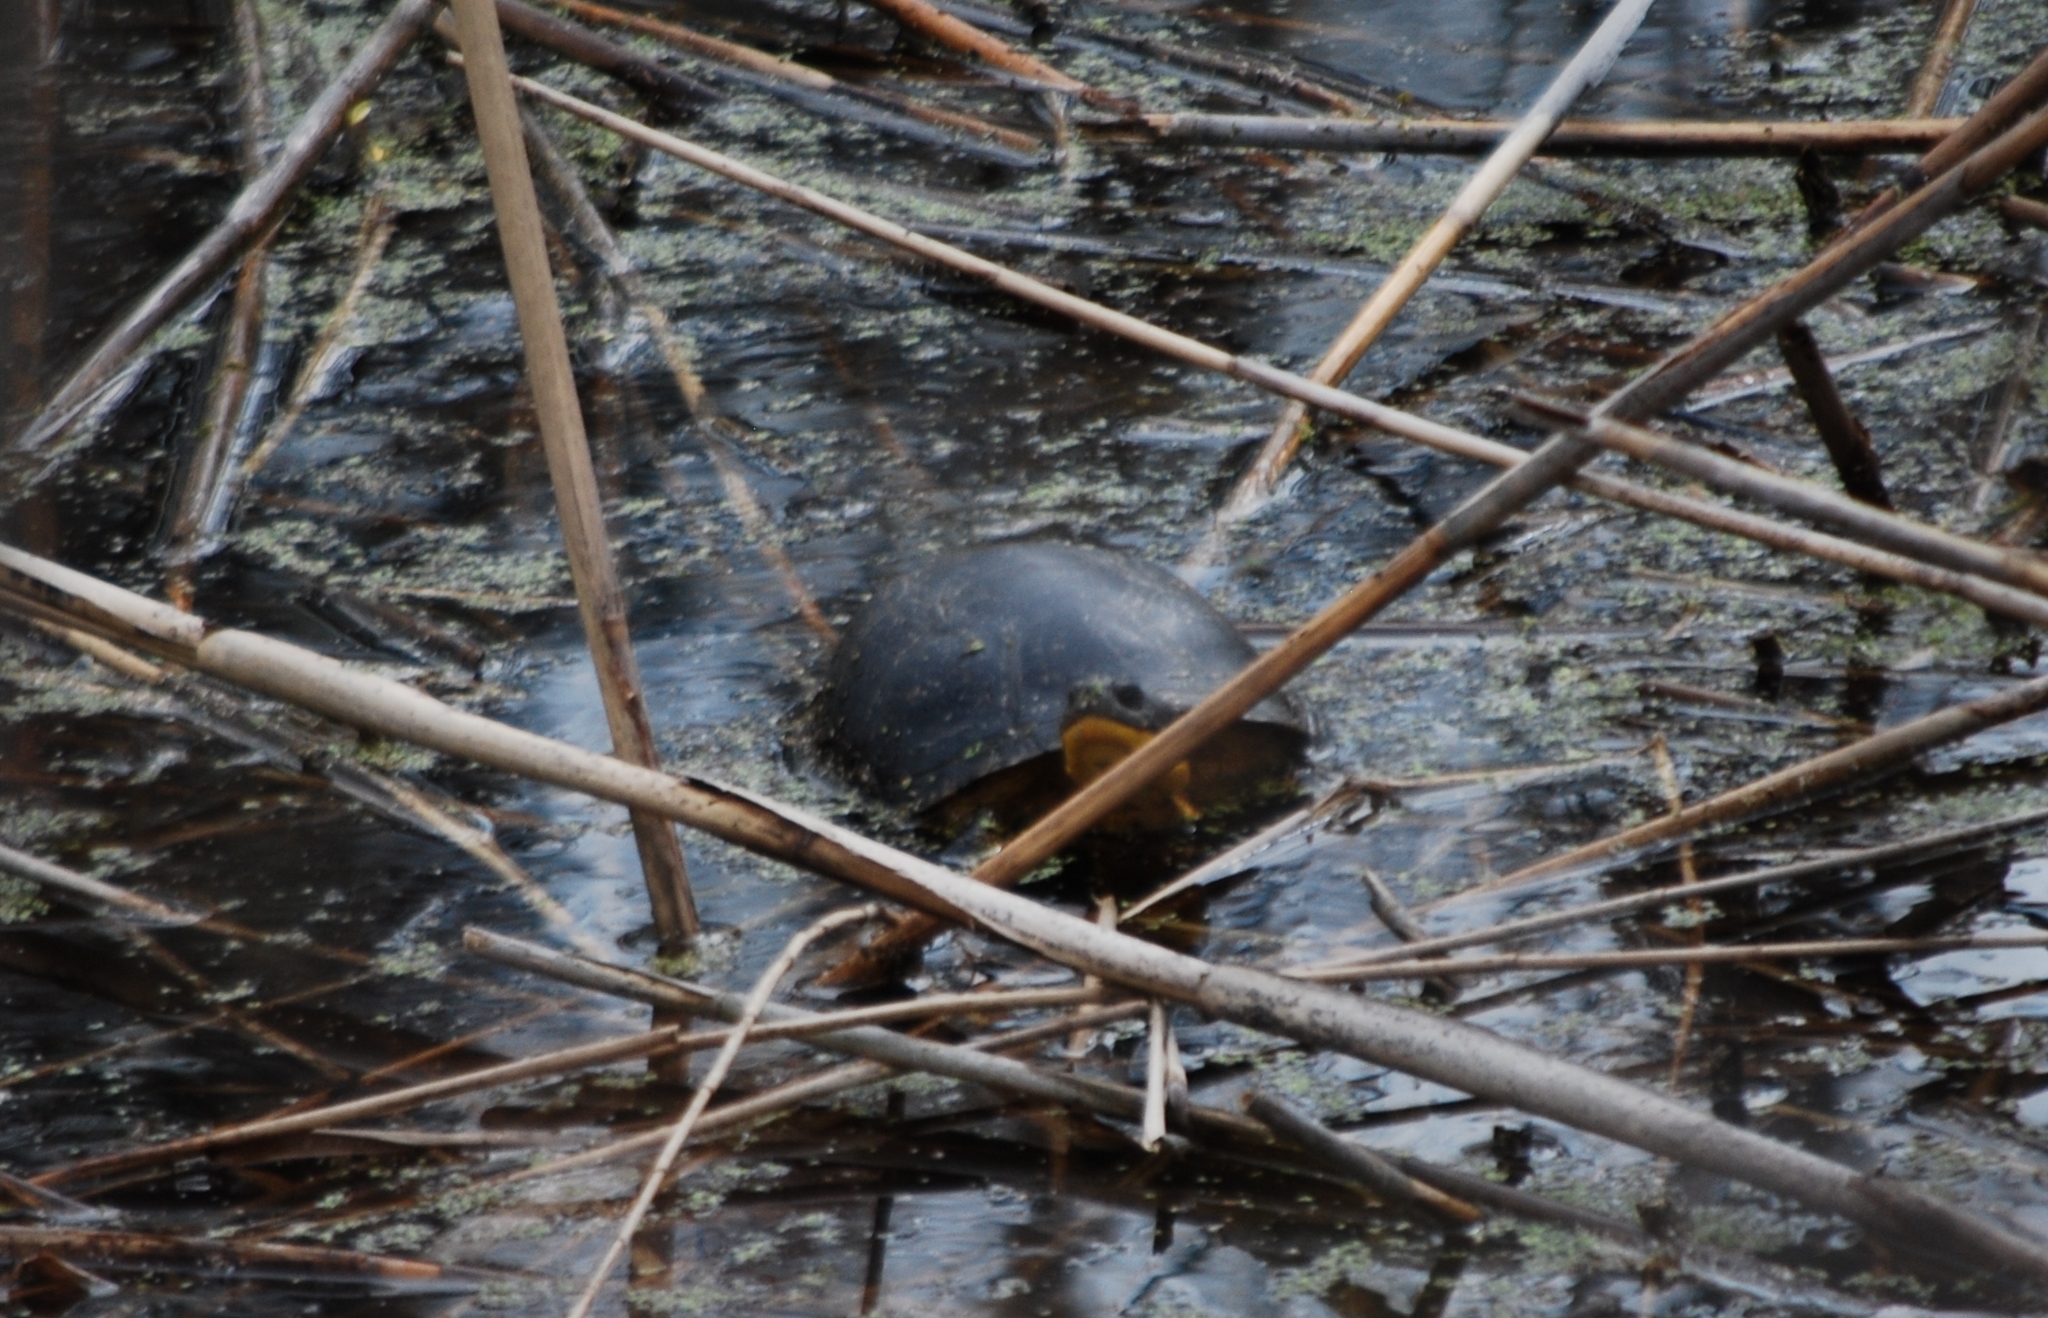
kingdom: Animalia
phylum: Chordata
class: Testudines
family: Emydidae
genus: Emys
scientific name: Emys blandingii
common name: Blanding's turtle
